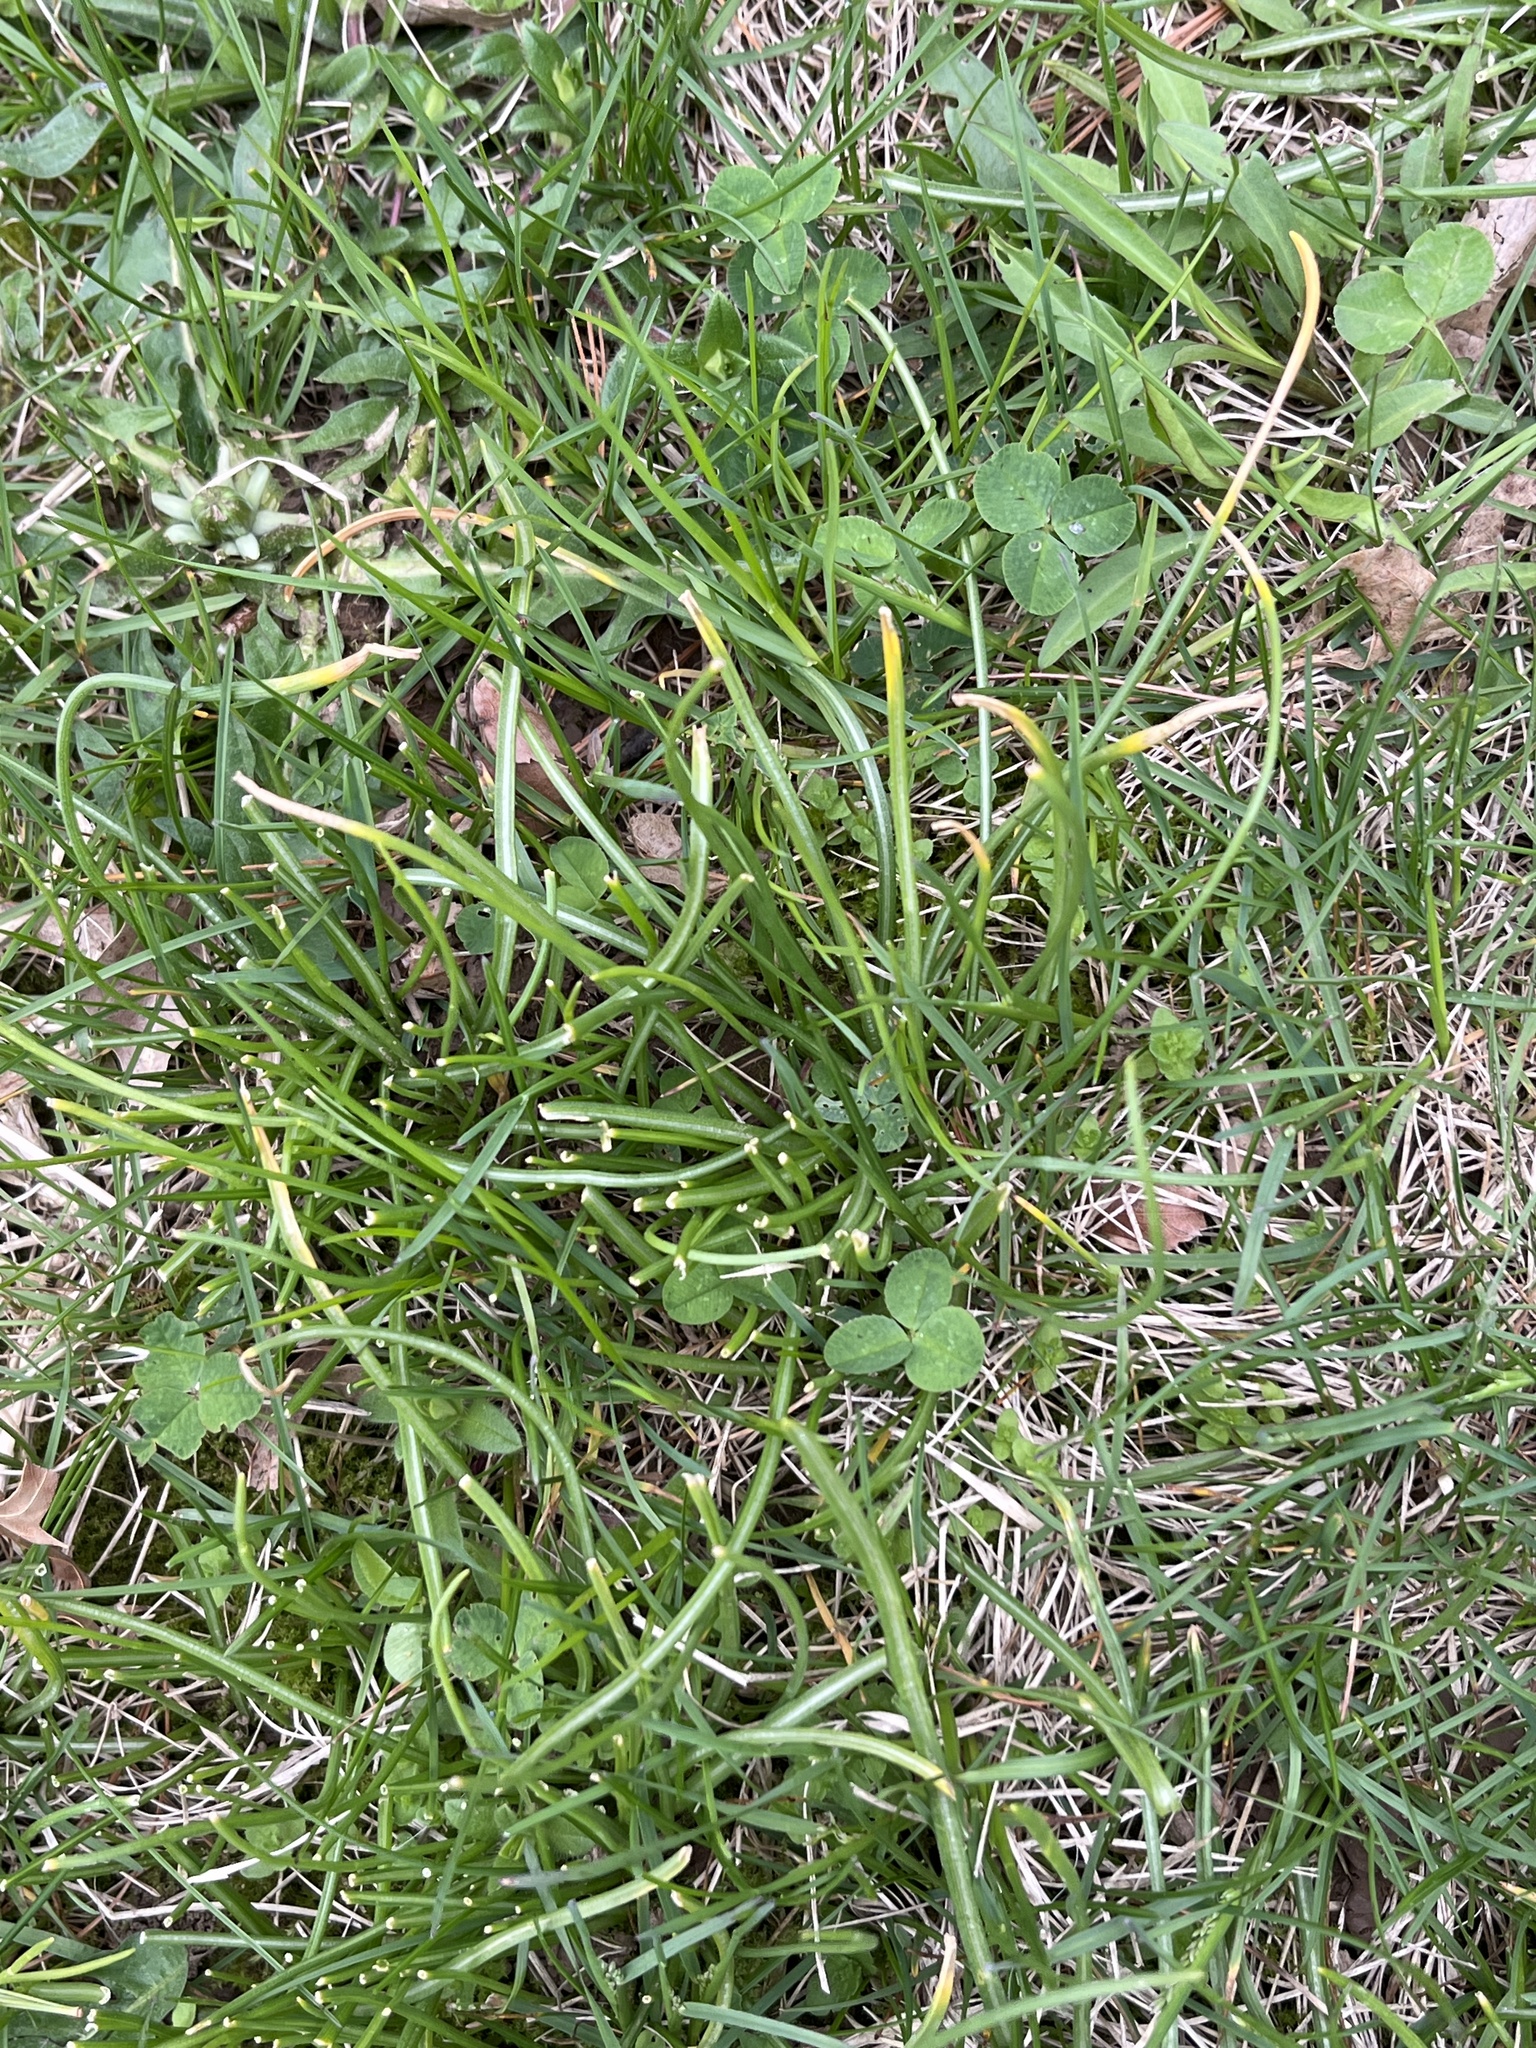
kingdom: Fungi
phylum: Basidiomycota
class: Pucciniomycetes
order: Pucciniales
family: Pucciniaceae
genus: Puccinia
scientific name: Puccinia liliacearum
